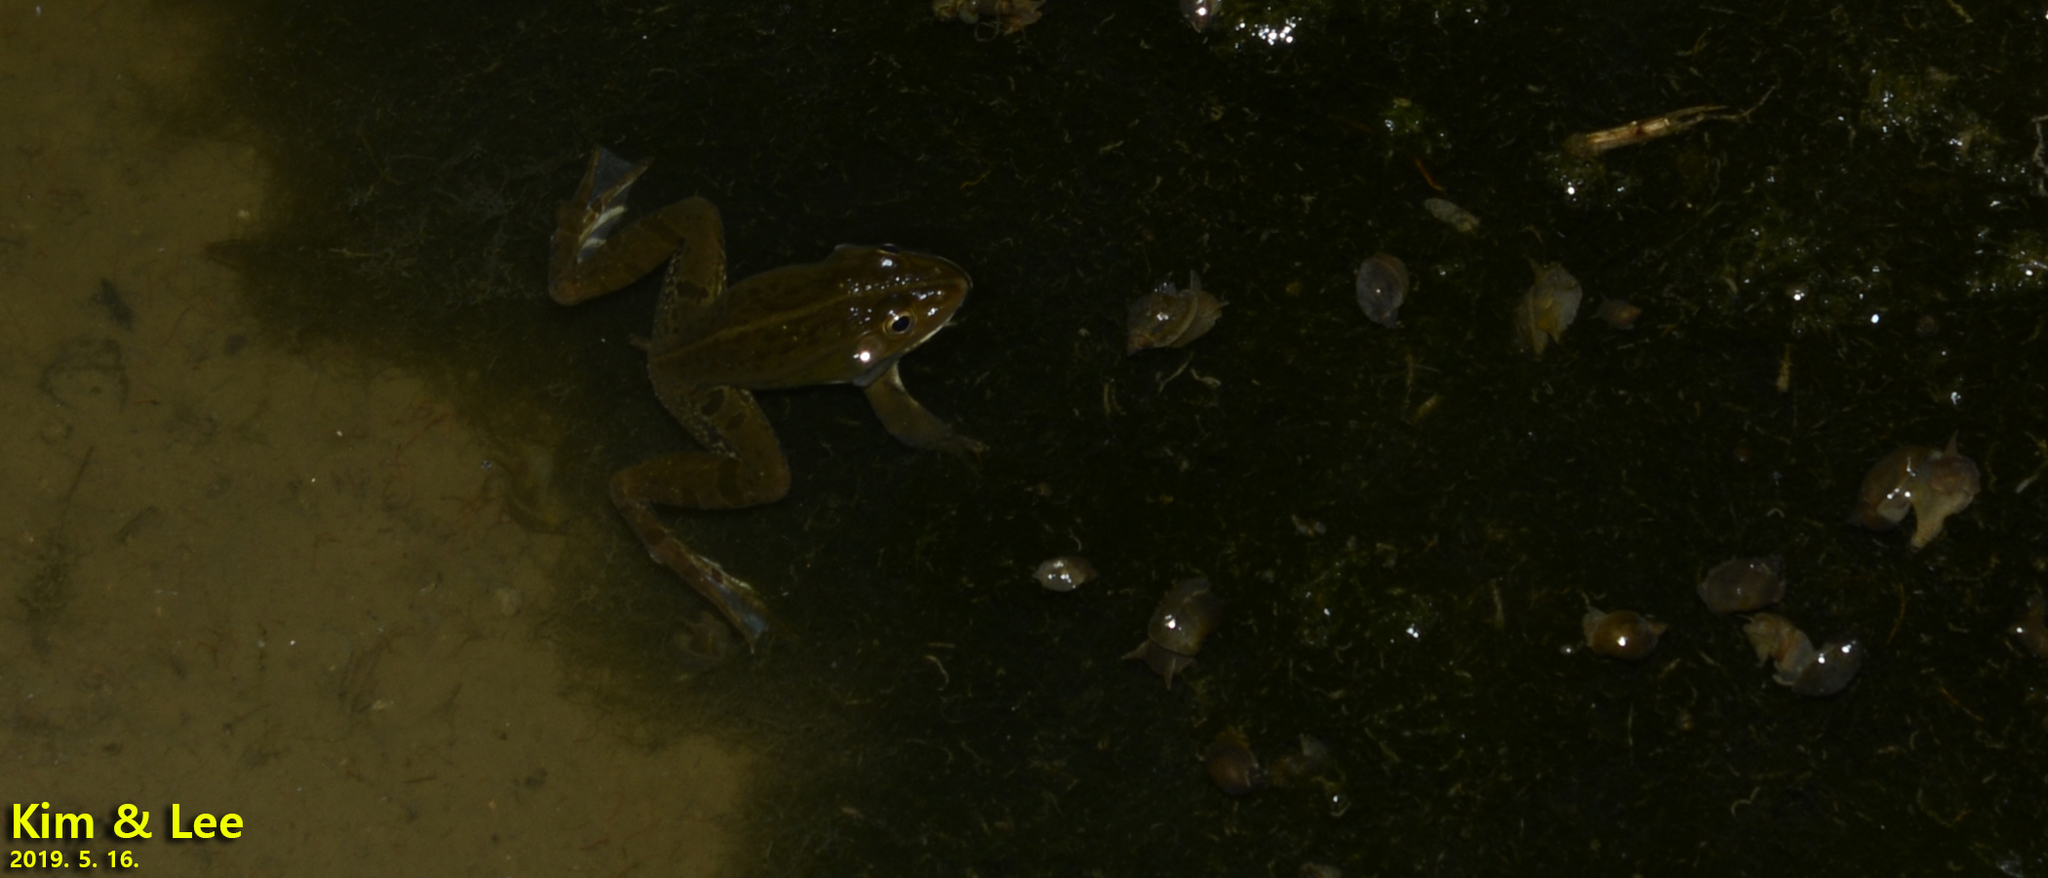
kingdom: Animalia
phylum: Chordata
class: Amphibia
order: Anura
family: Ranidae
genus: Pelophylax
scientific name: Pelophylax nigromaculatus
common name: Black-spotted pond frog
